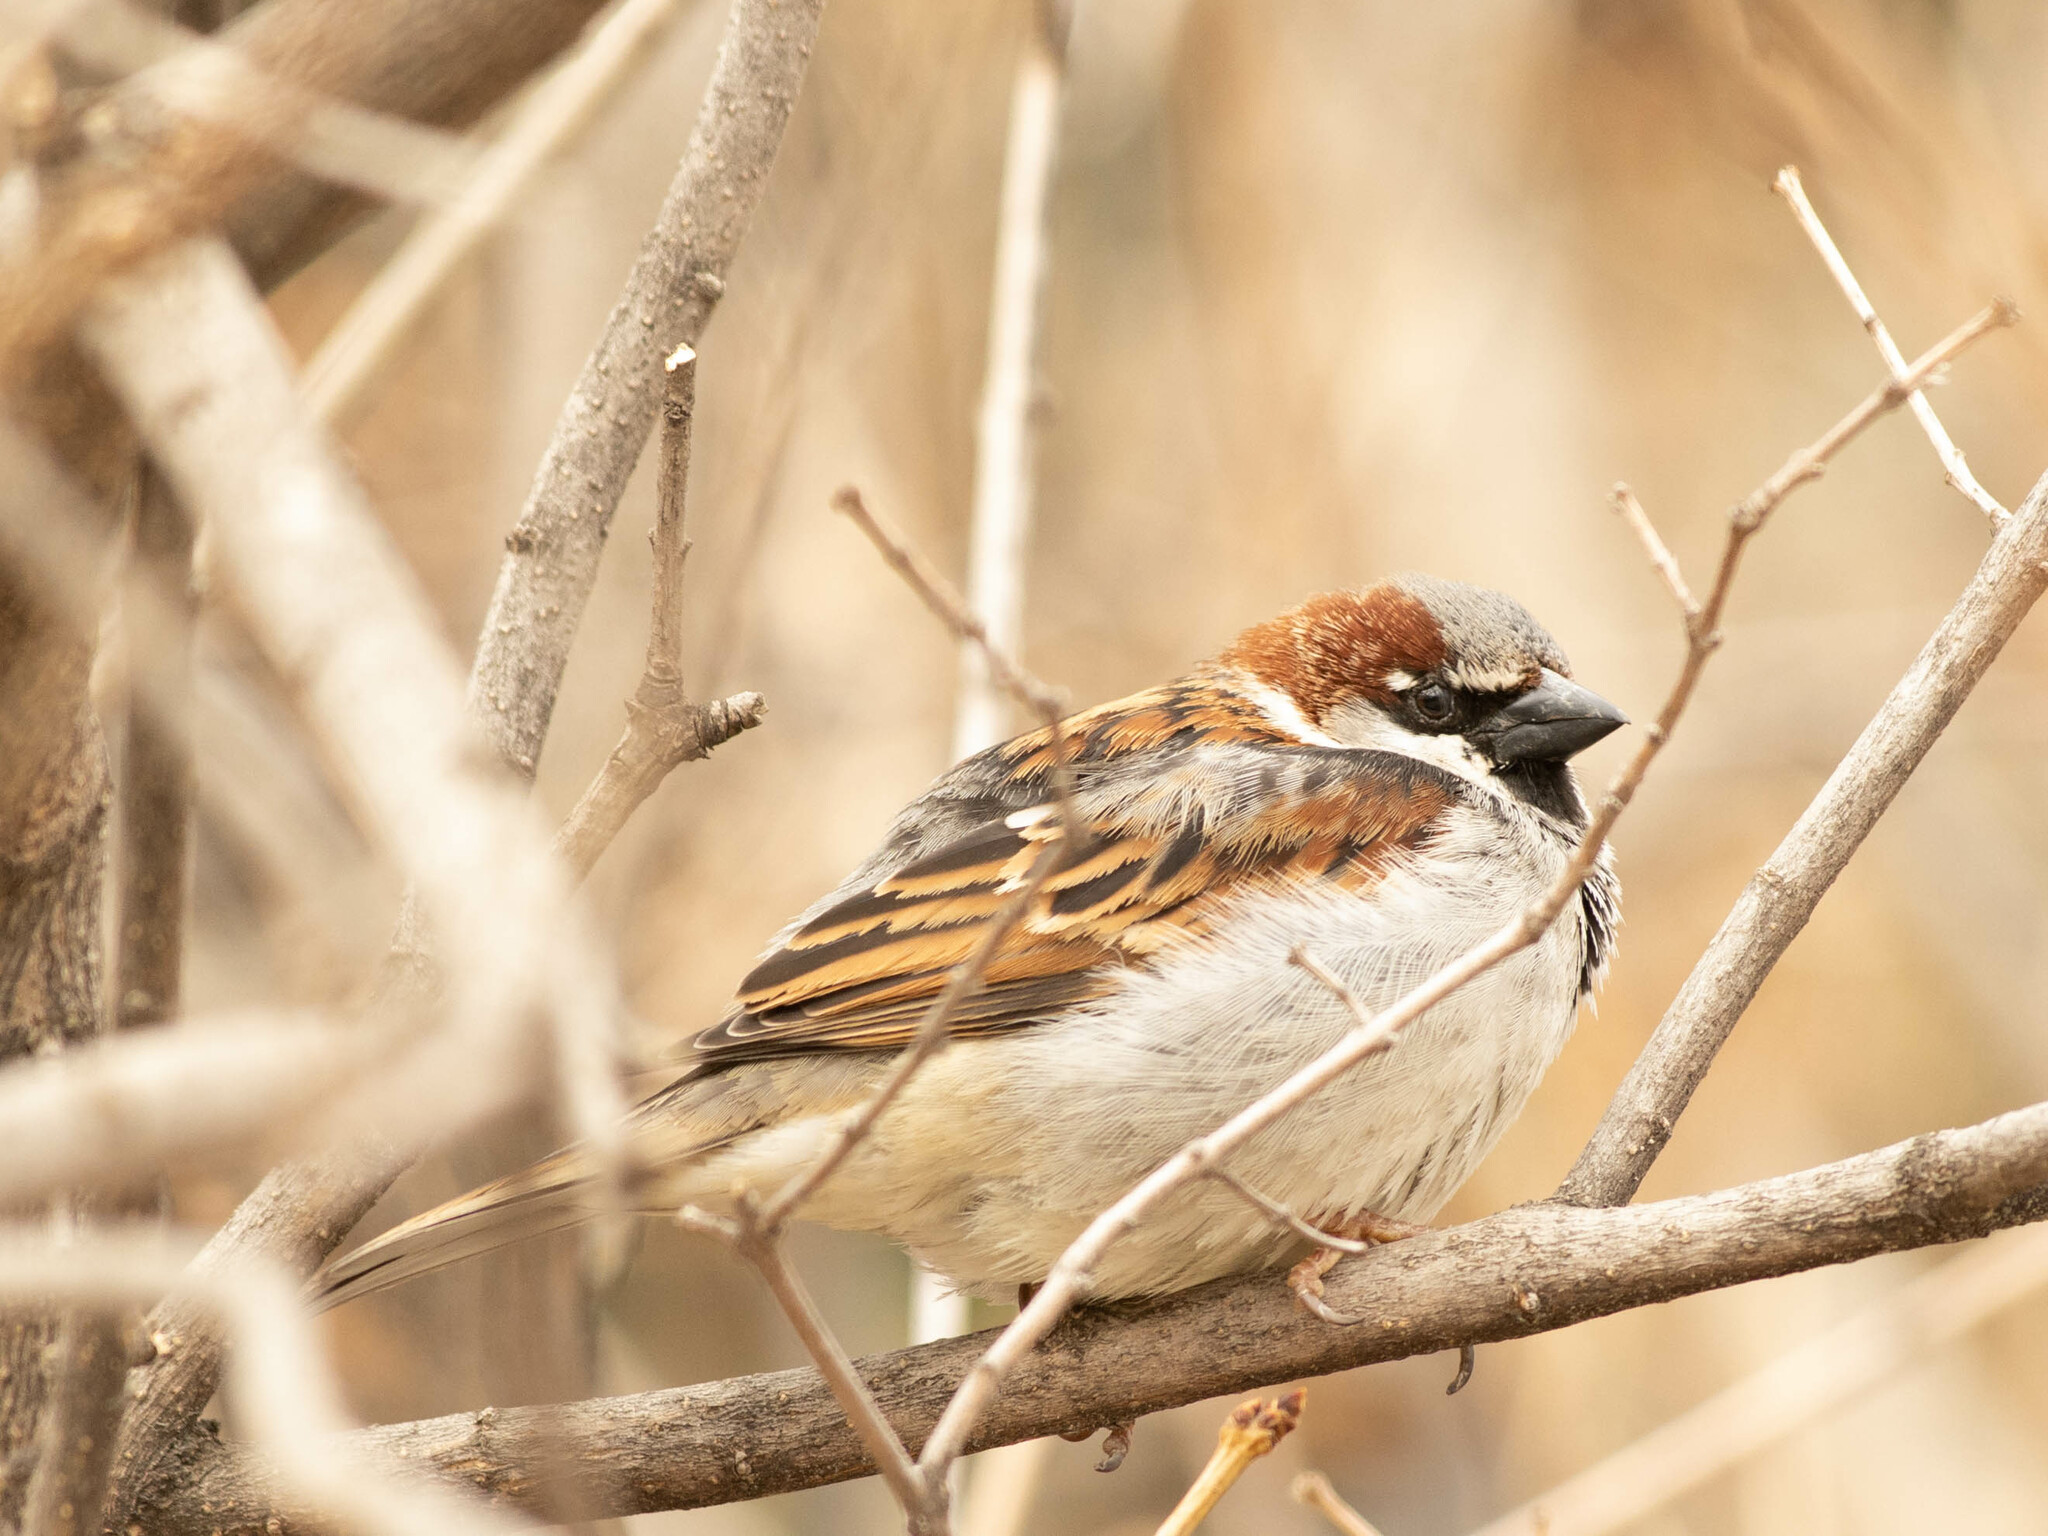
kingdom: Animalia
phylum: Chordata
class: Aves
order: Passeriformes
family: Passeridae
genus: Passer
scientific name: Passer domesticus
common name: House sparrow
